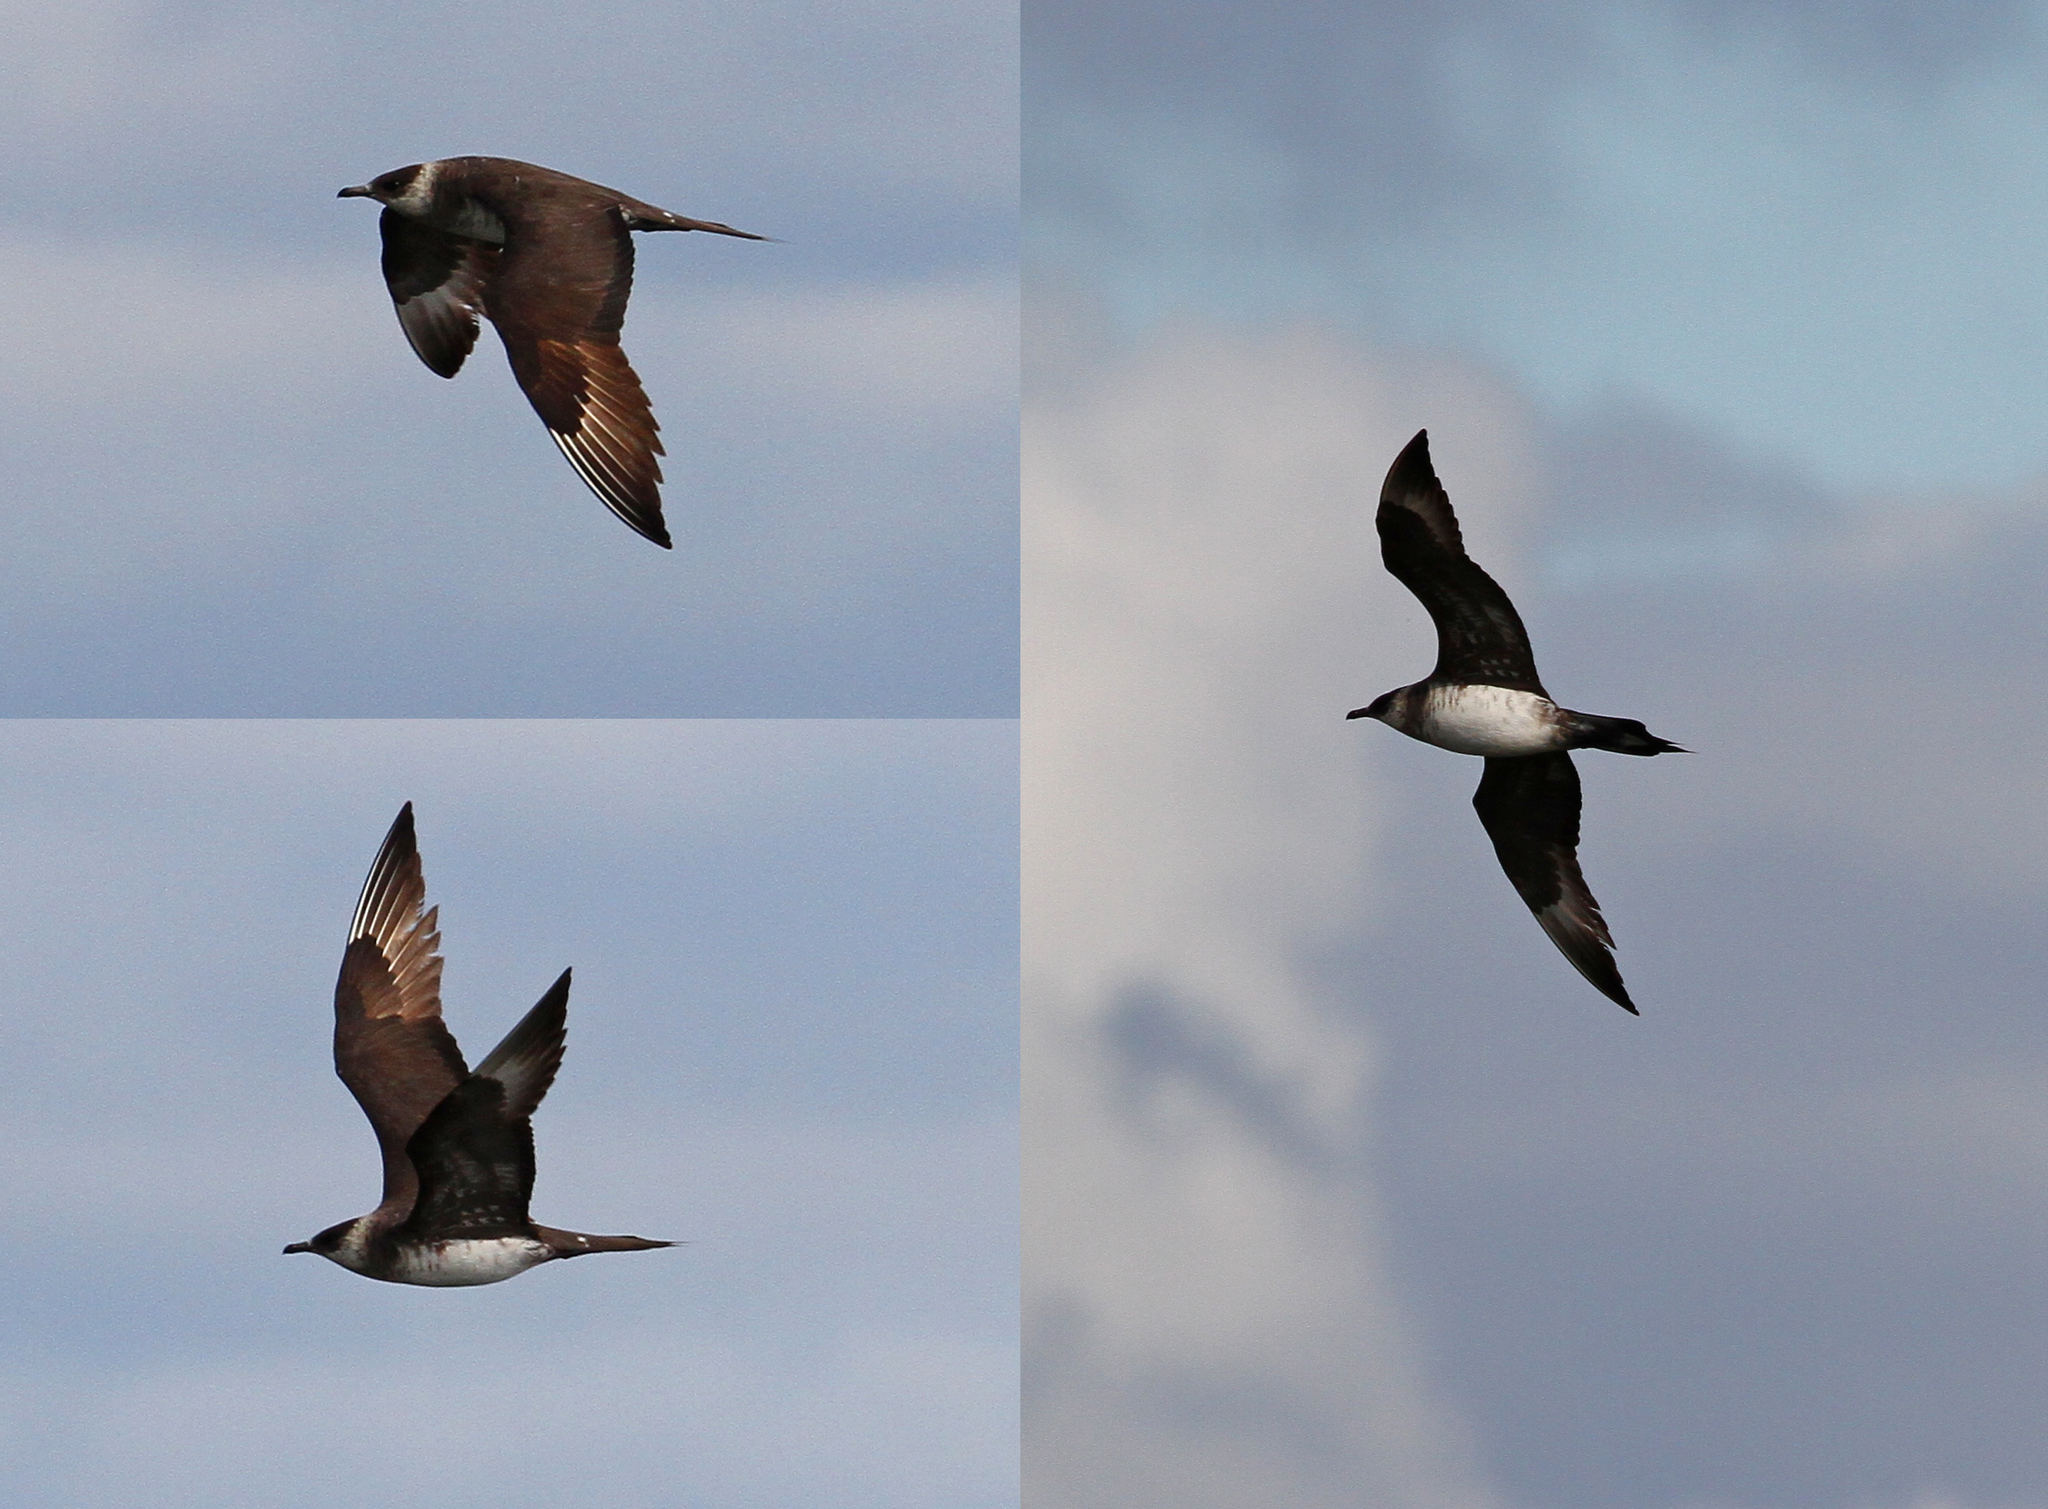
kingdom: Animalia
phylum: Chordata
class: Aves
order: Charadriiformes
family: Stercorariidae
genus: Stercorarius
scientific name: Stercorarius parasiticus
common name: Parasitic jaeger
